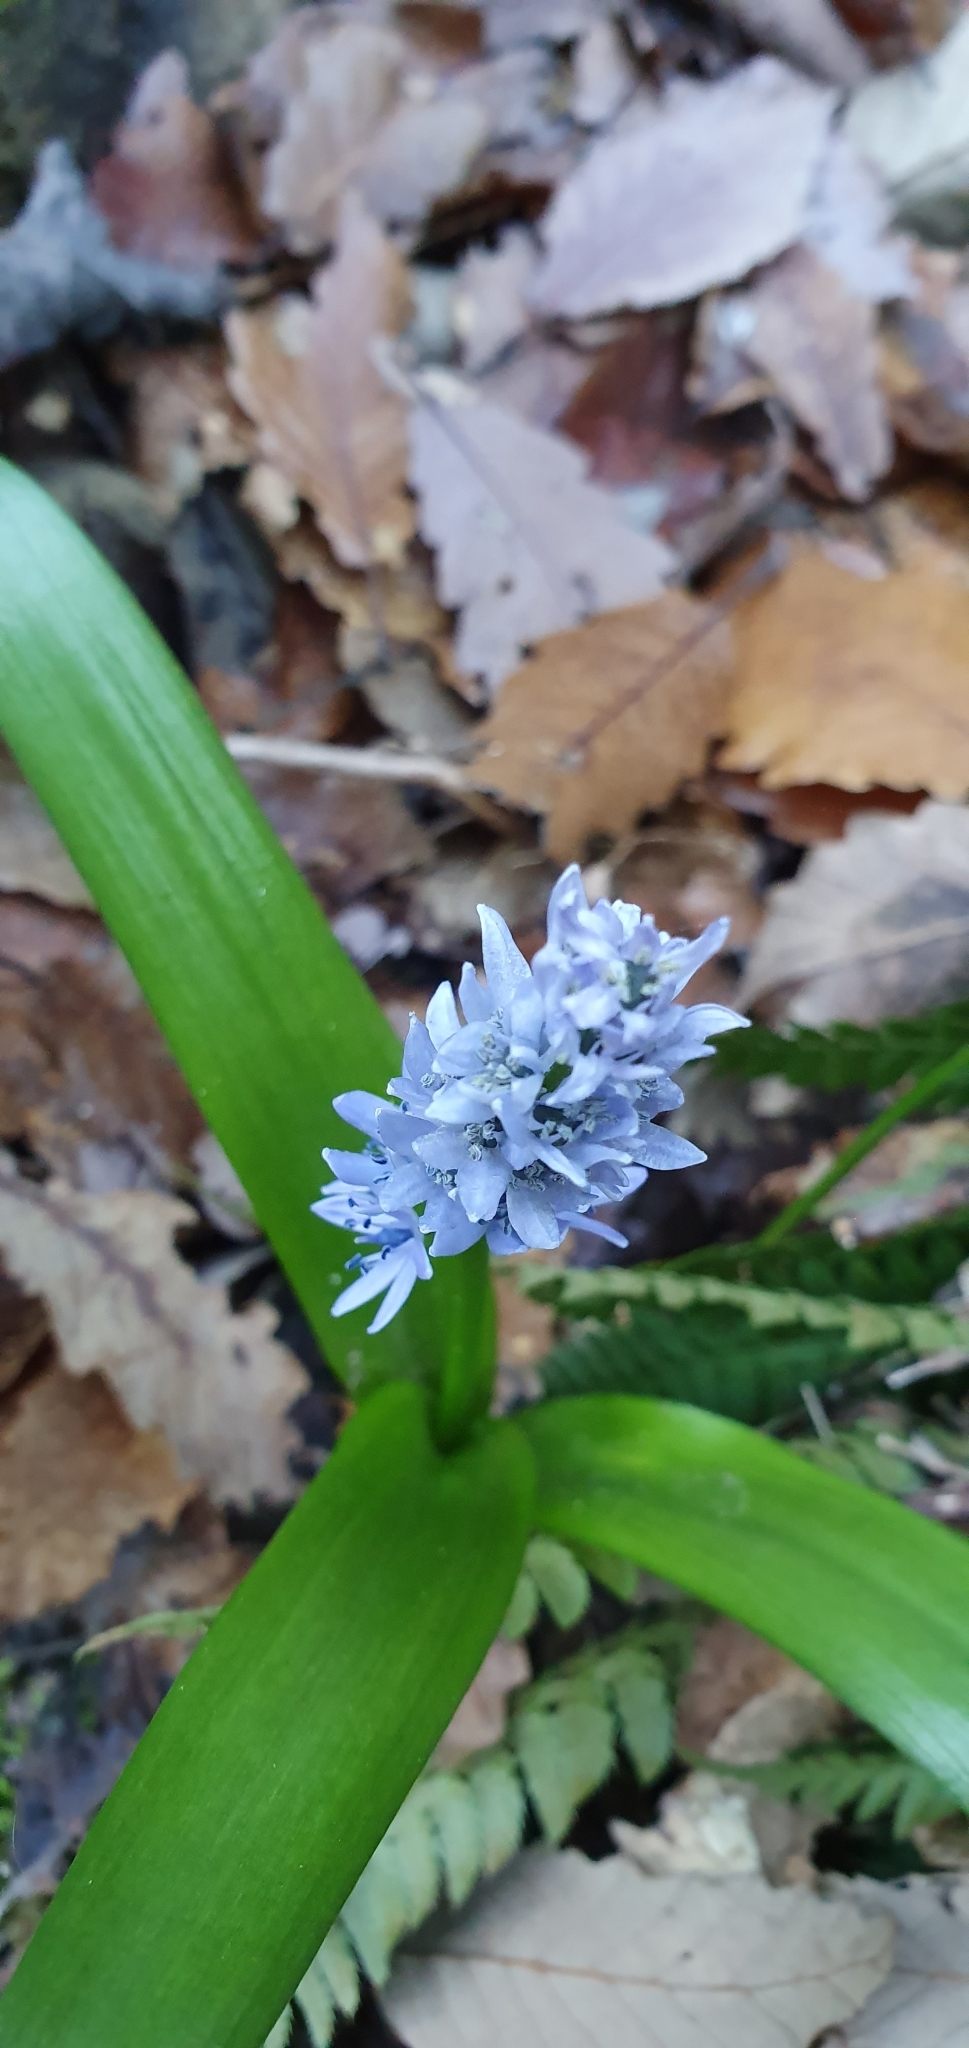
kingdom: Plantae
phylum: Tracheophyta
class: Liliopsida
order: Asparagales
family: Asparagaceae
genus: Hyacinthoides
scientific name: Hyacinthoides aristidis
